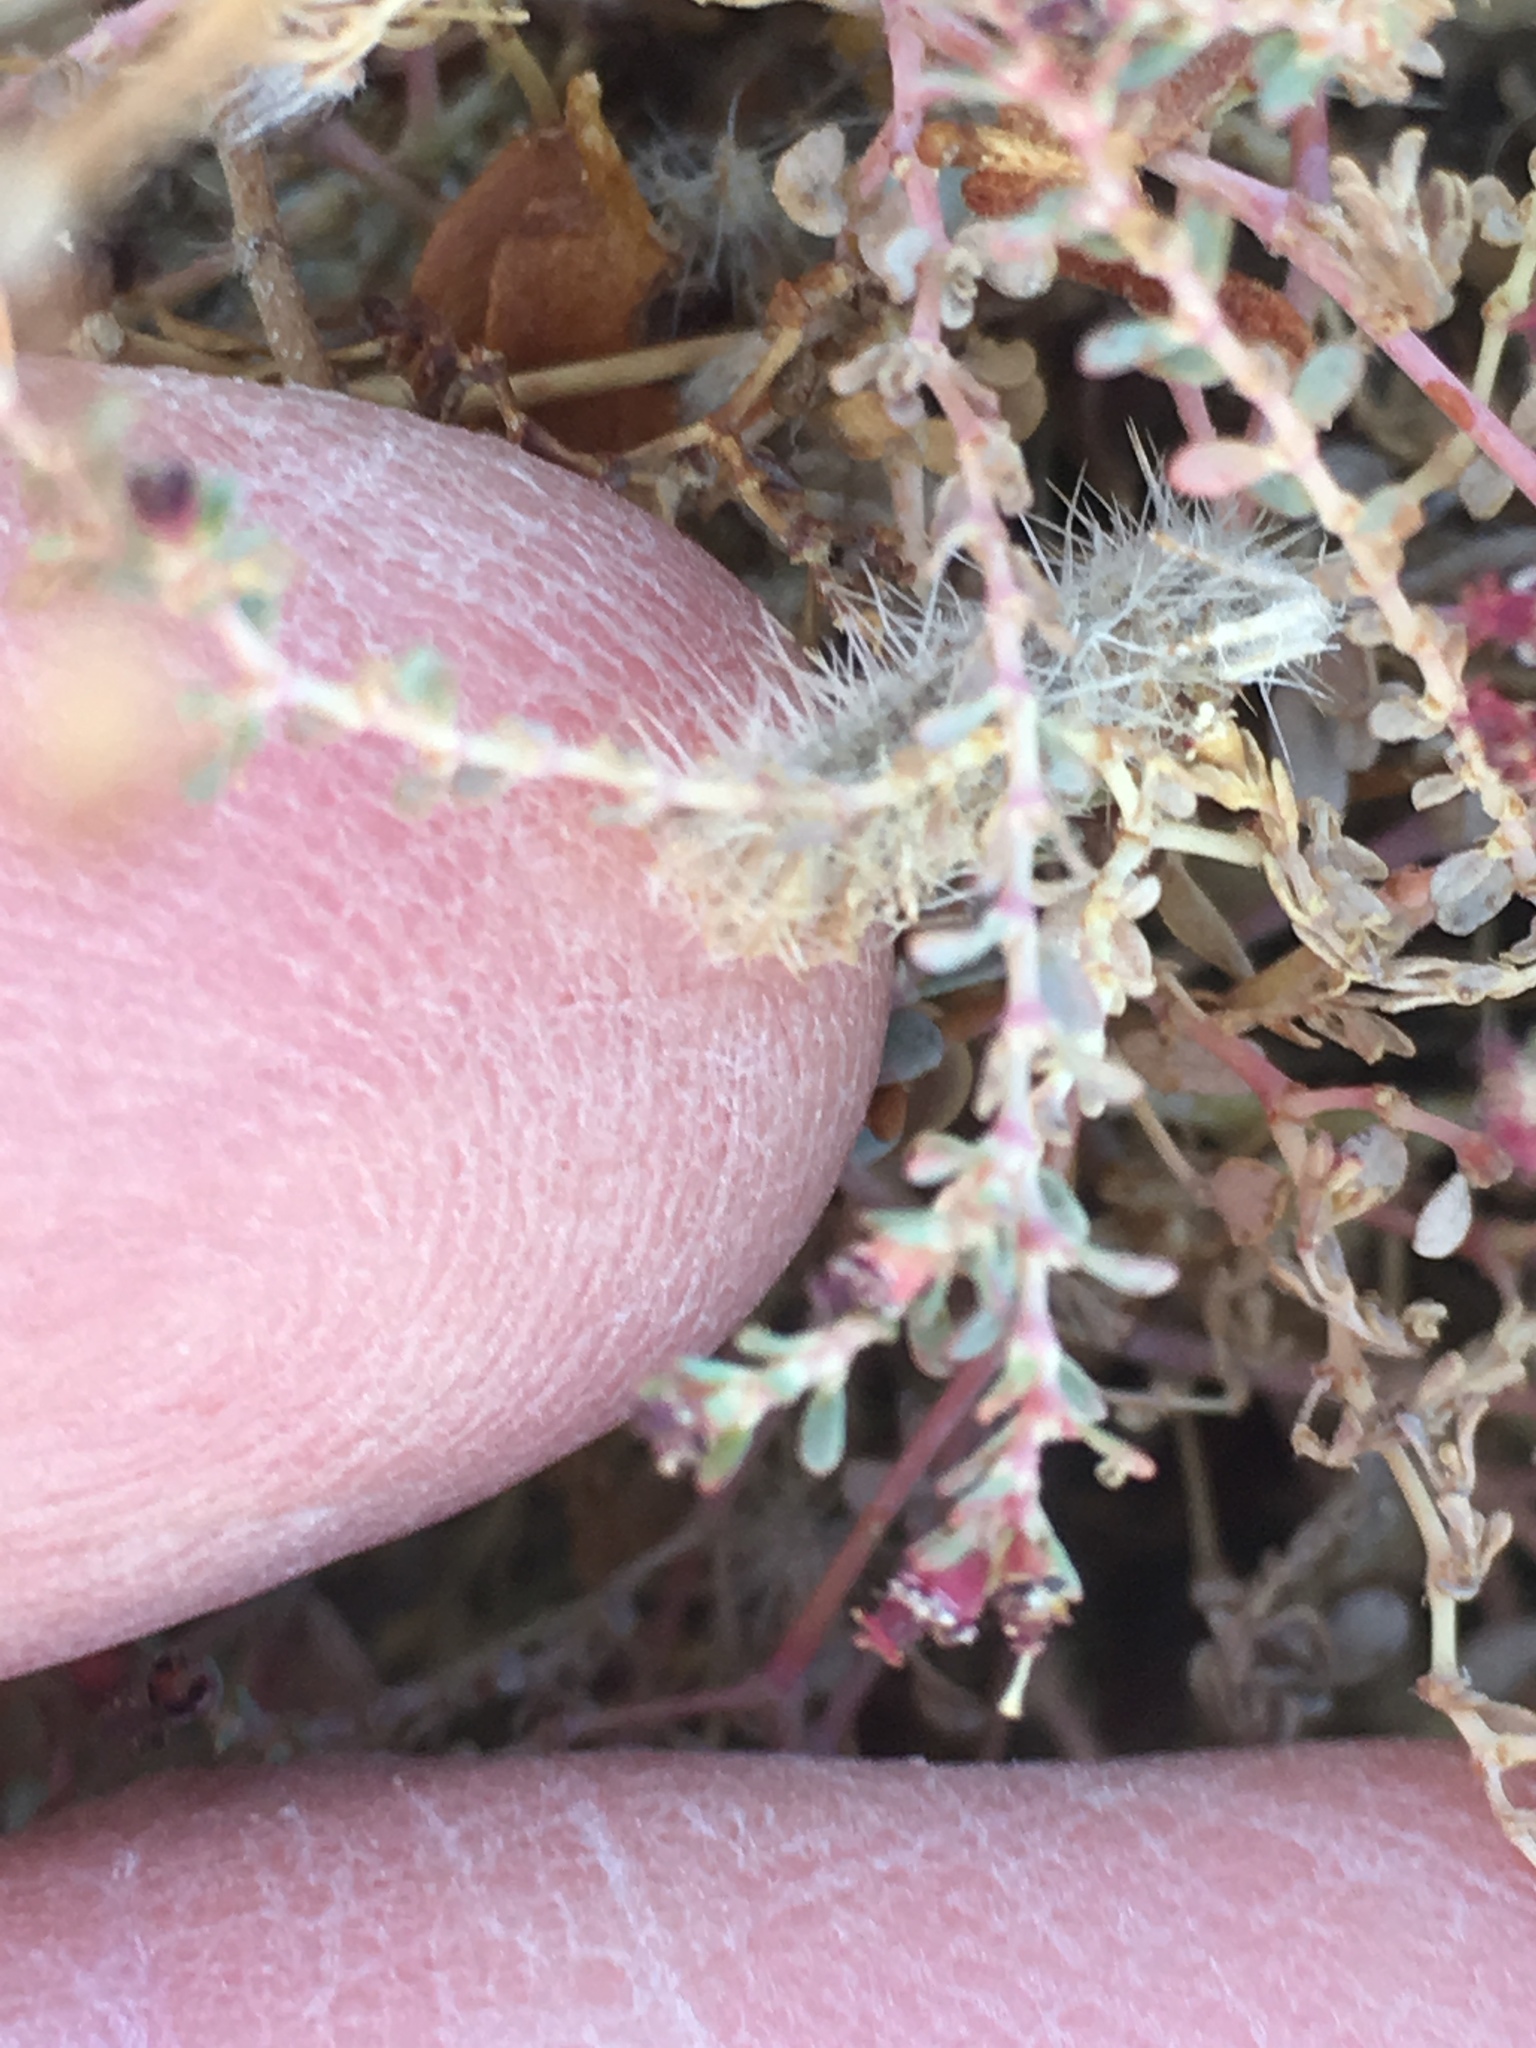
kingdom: Plantae
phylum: Tracheophyta
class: Magnoliopsida
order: Malpighiales
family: Euphorbiaceae
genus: Euphorbia
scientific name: Euphorbia polycarpa
